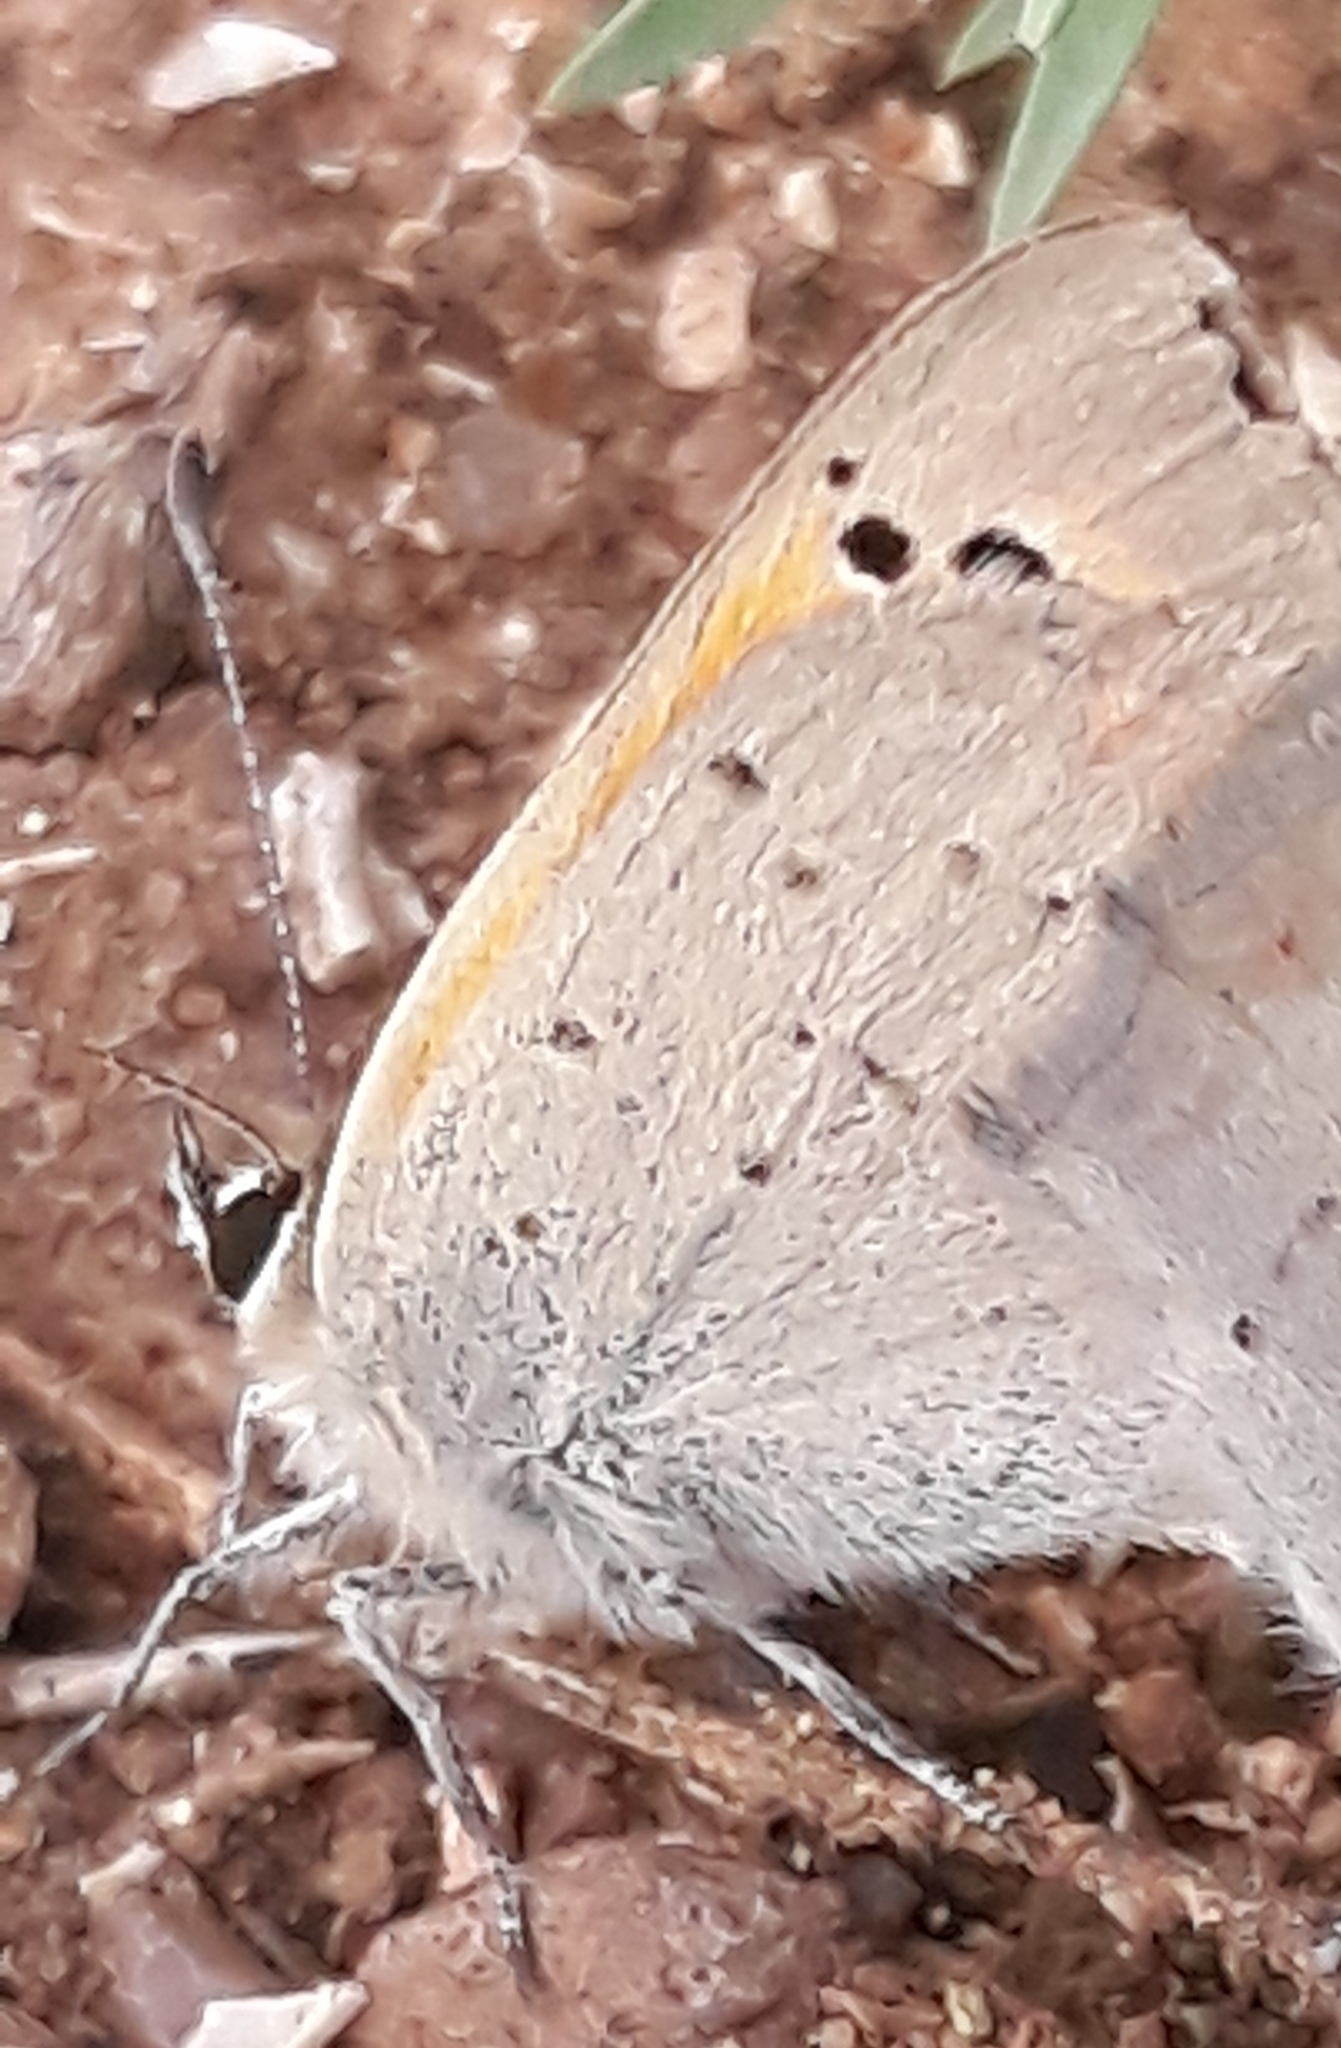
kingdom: Animalia
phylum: Arthropoda
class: Insecta
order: Lepidoptera
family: Lycaenidae
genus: Lycaena
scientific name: Lycaena phlaeas
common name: Small copper
